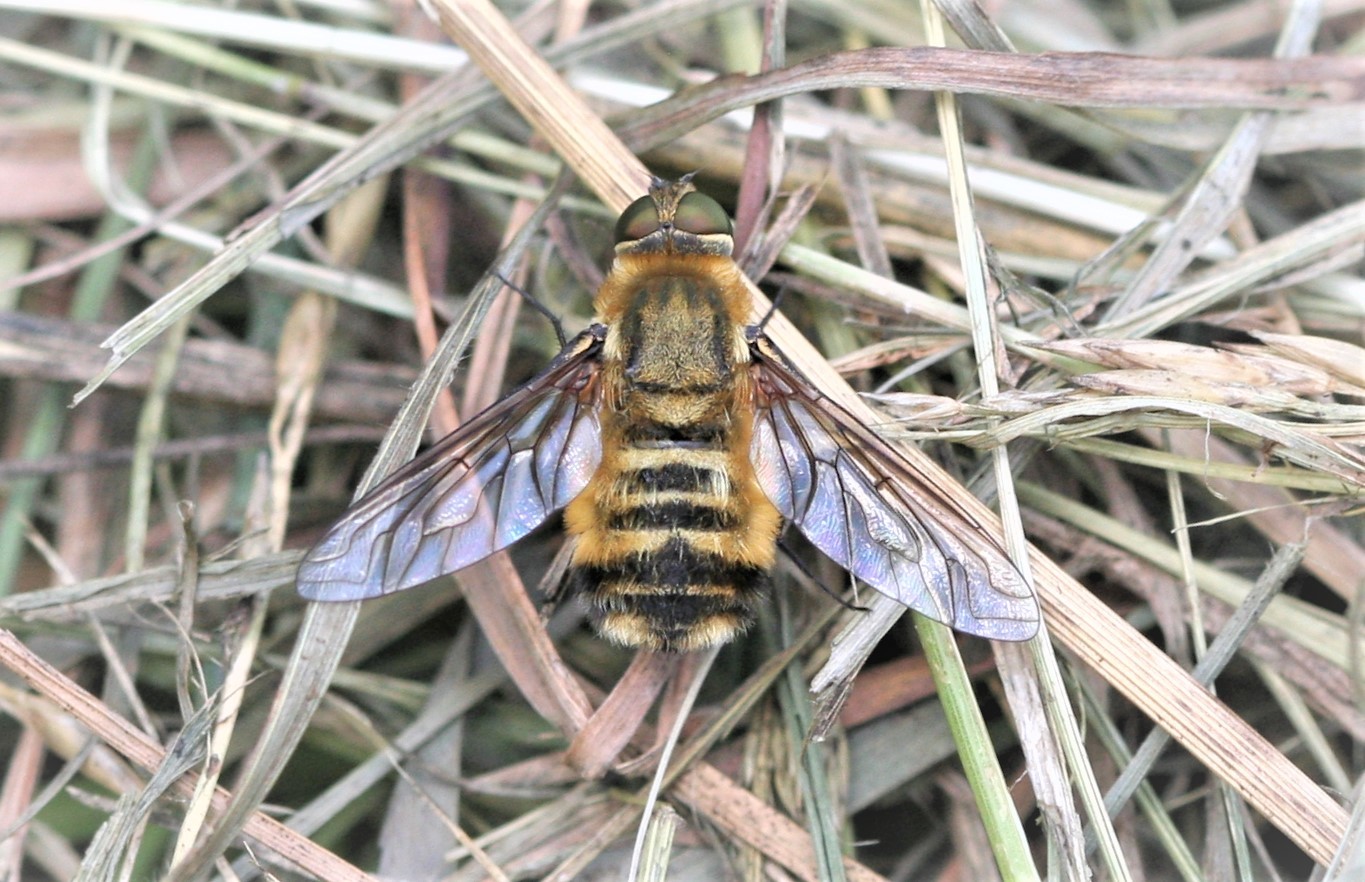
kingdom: Animalia
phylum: Arthropoda
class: Insecta
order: Diptera
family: Bombyliidae
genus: Villa
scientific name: Villa hottentotta
